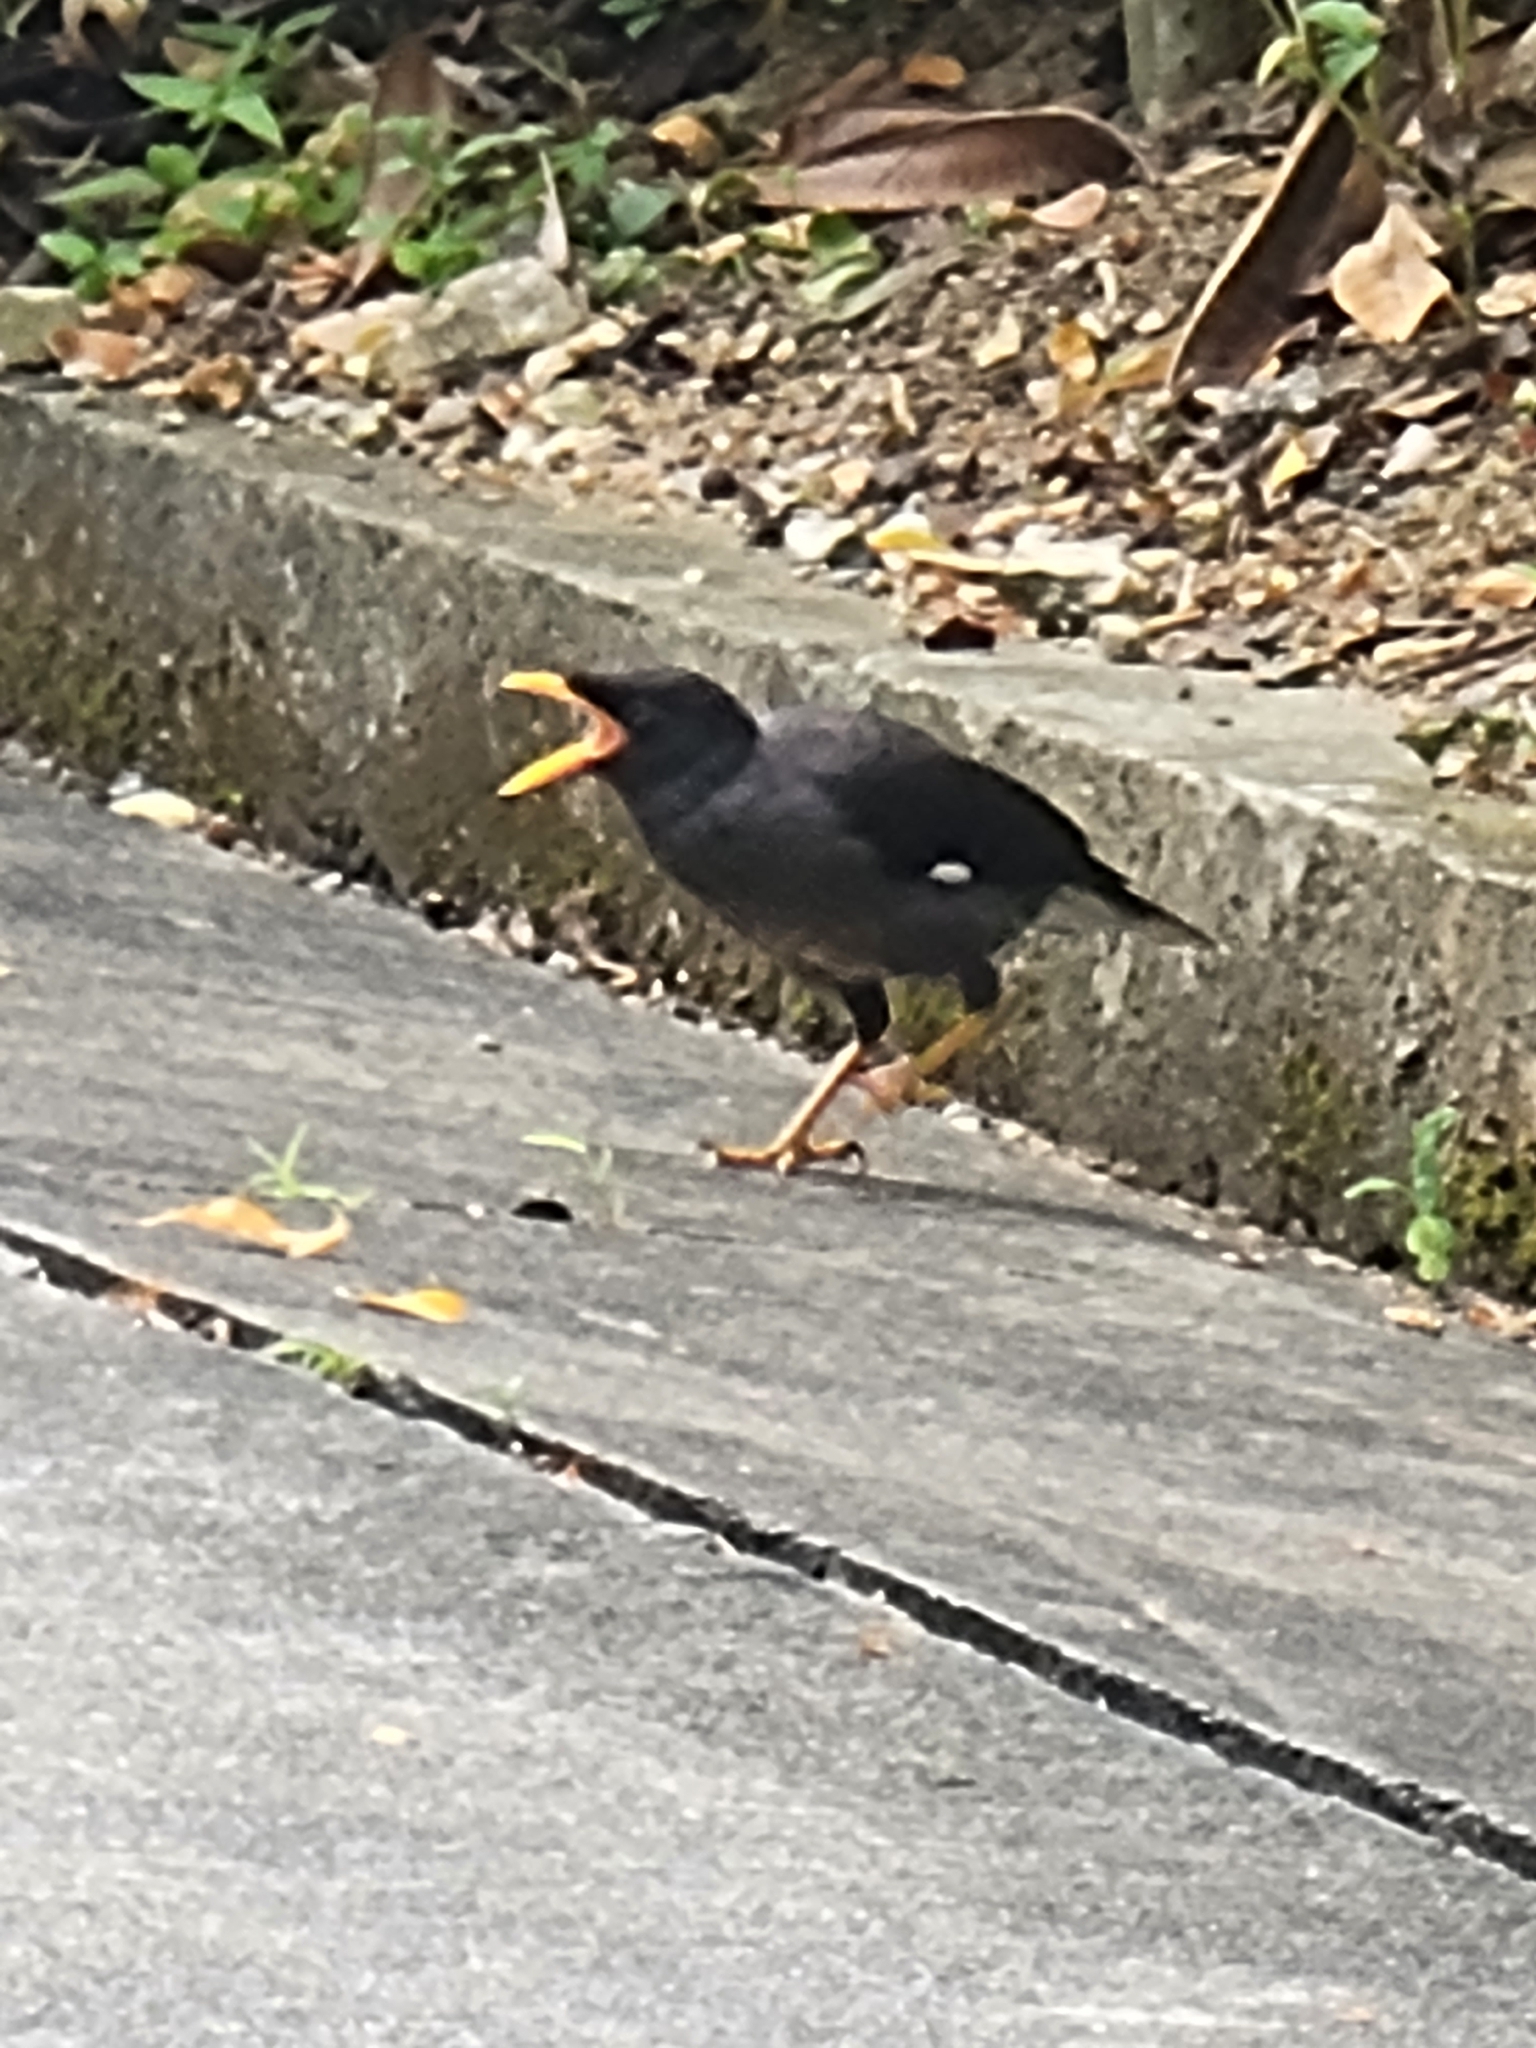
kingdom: Animalia
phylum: Chordata
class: Aves
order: Passeriformes
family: Sturnidae
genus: Acridotheres
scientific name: Acridotheres javanicus
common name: Javan myna
